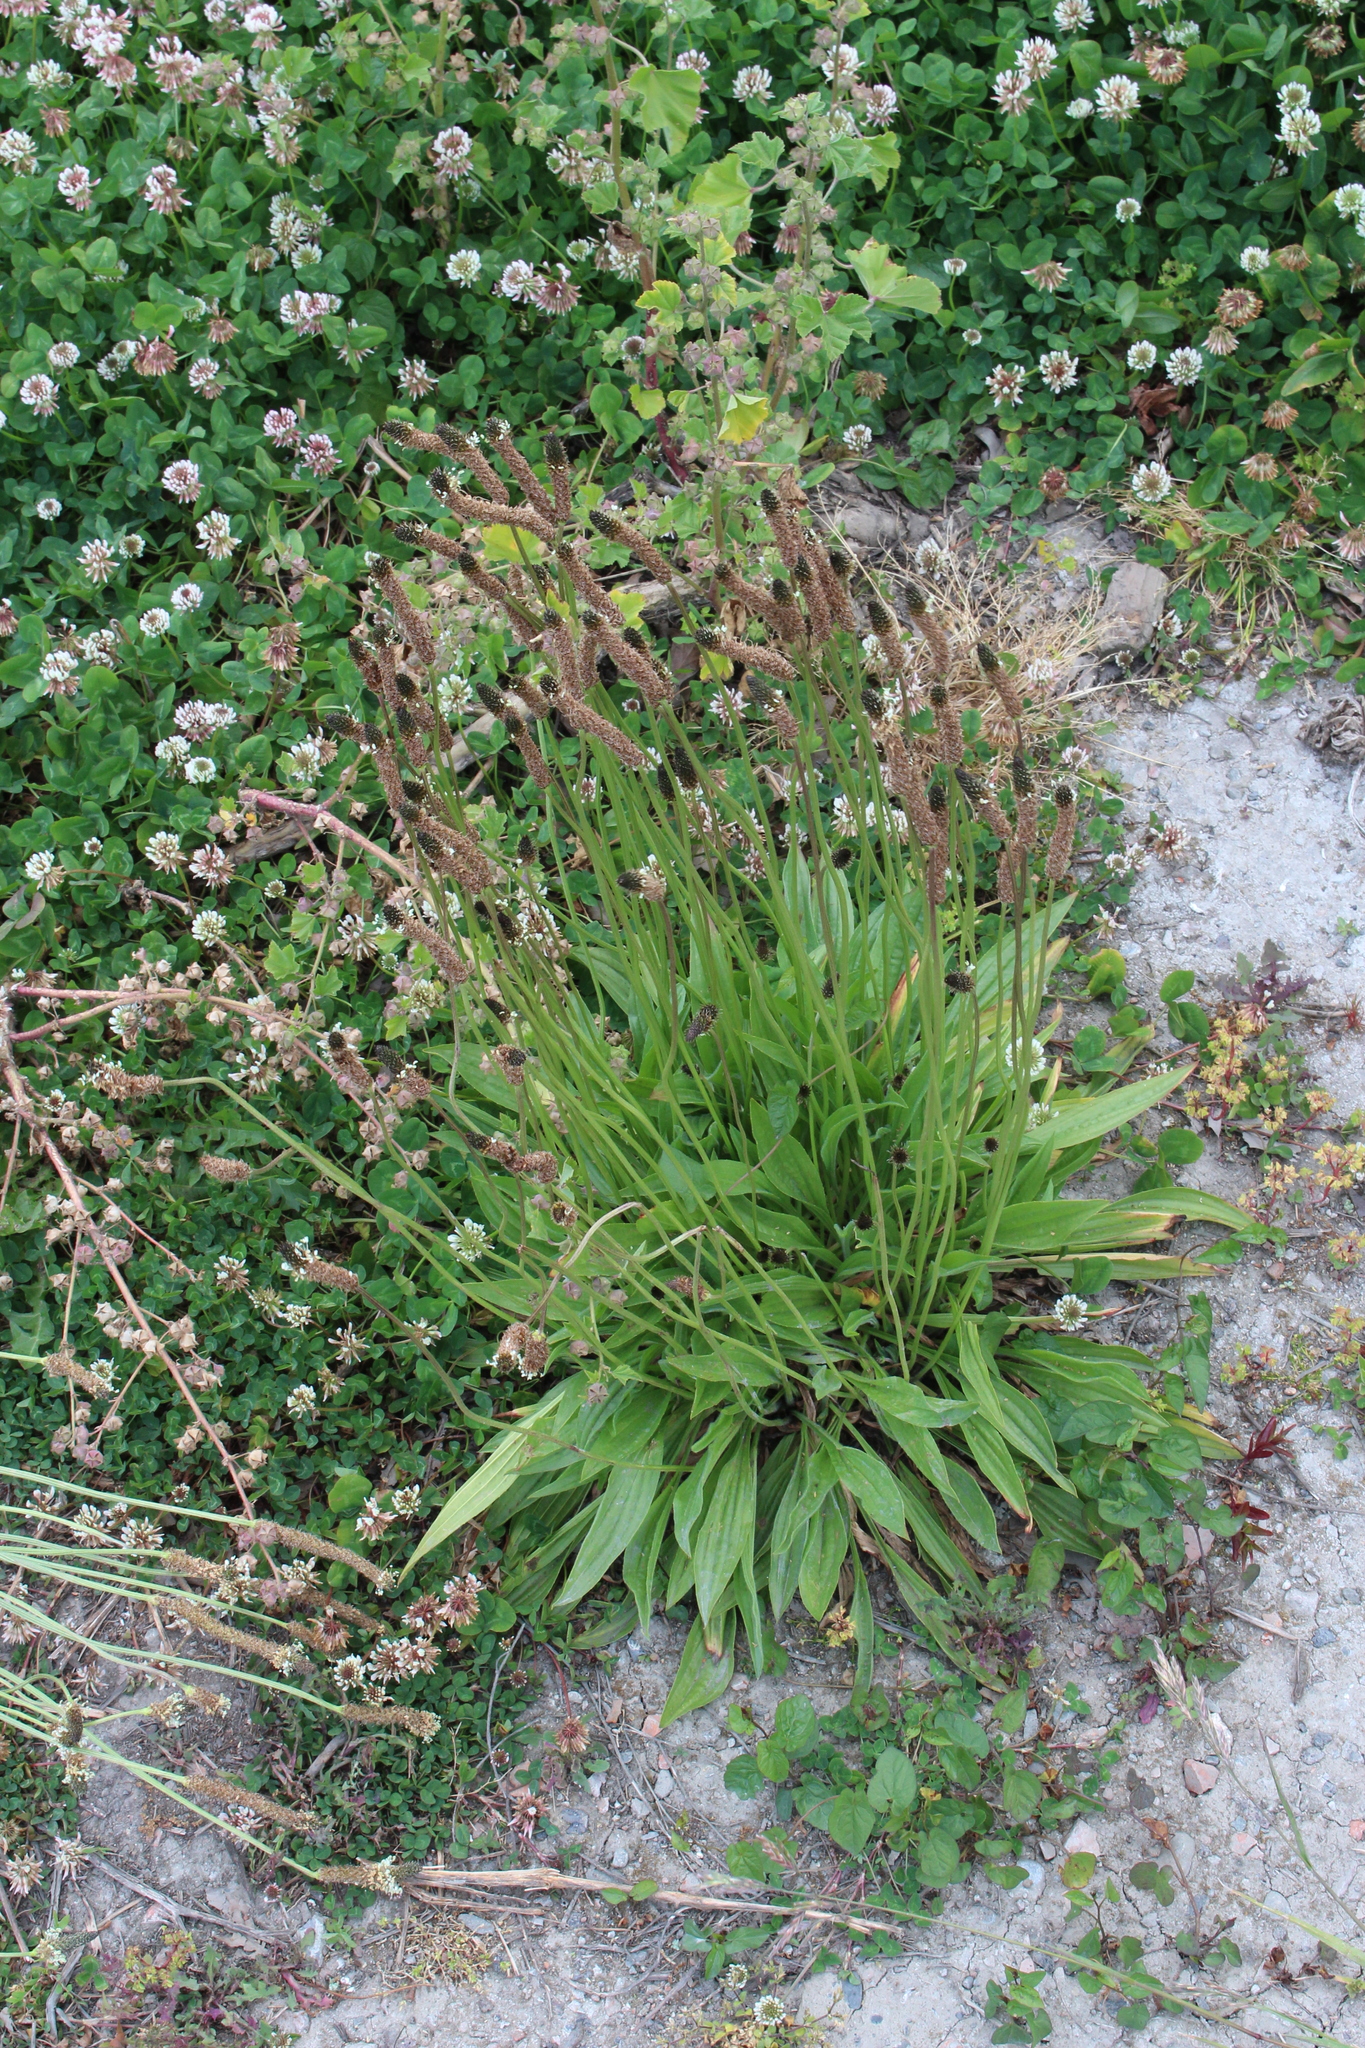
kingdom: Plantae
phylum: Tracheophyta
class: Magnoliopsida
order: Lamiales
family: Plantaginaceae
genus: Plantago
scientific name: Plantago lanceolata
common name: Ribwort plantain
